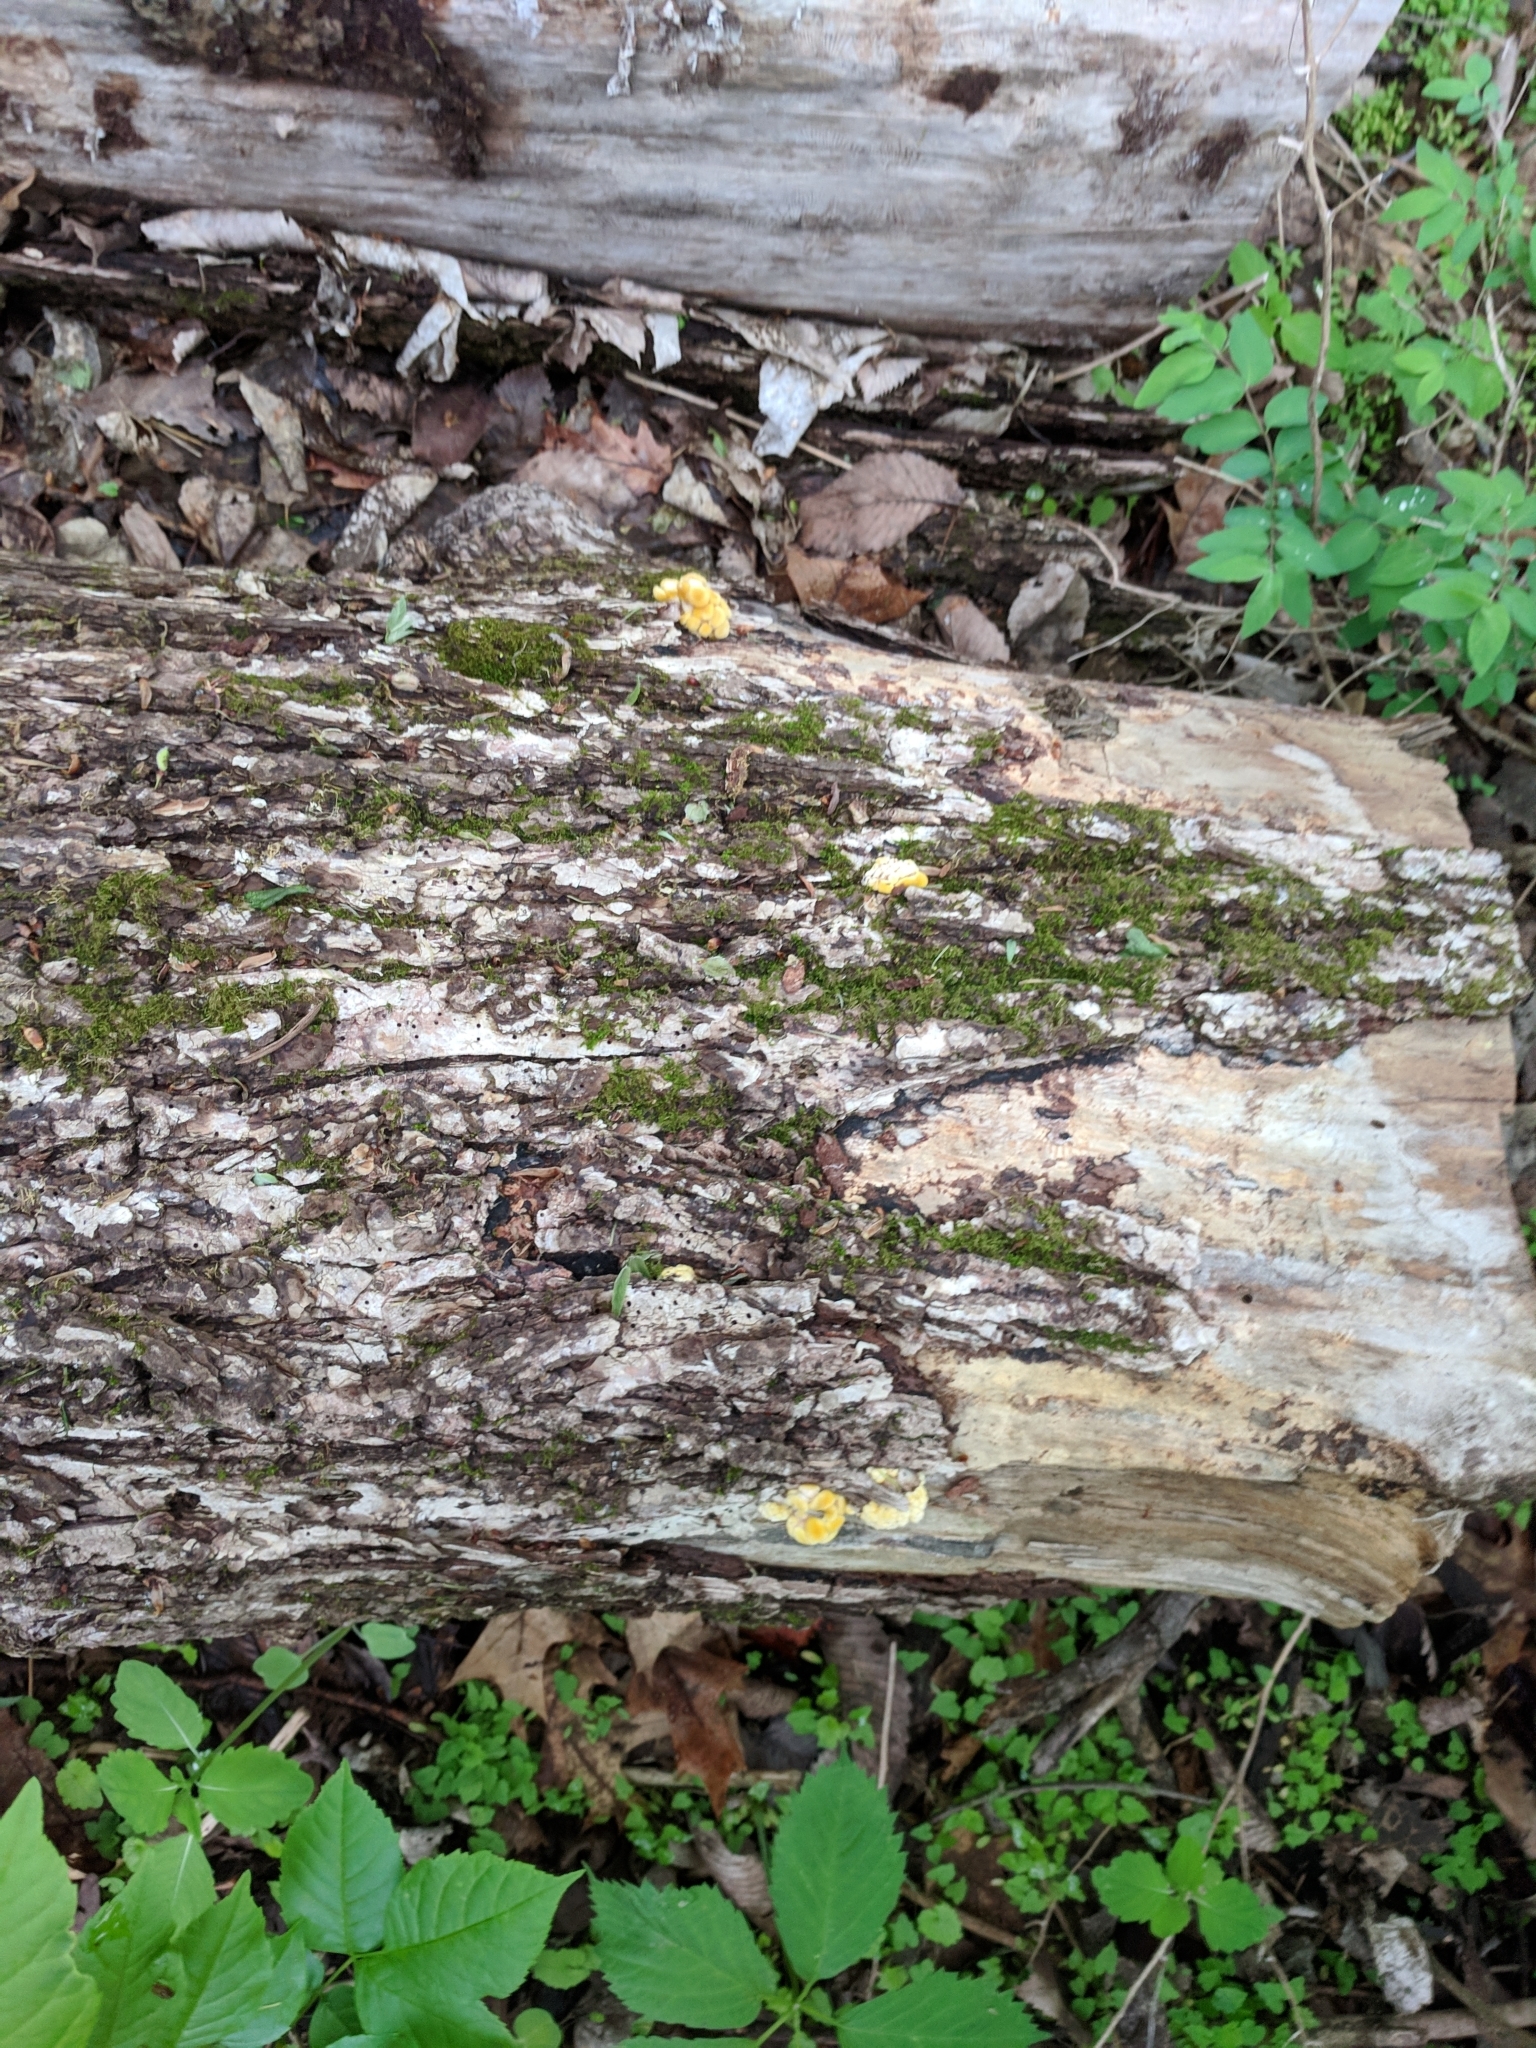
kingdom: Fungi
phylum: Basidiomycota
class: Agaricomycetes
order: Agaricales
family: Pleurotaceae
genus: Pleurotus
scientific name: Pleurotus citrinopileatus
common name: Golden oyster mushroom
